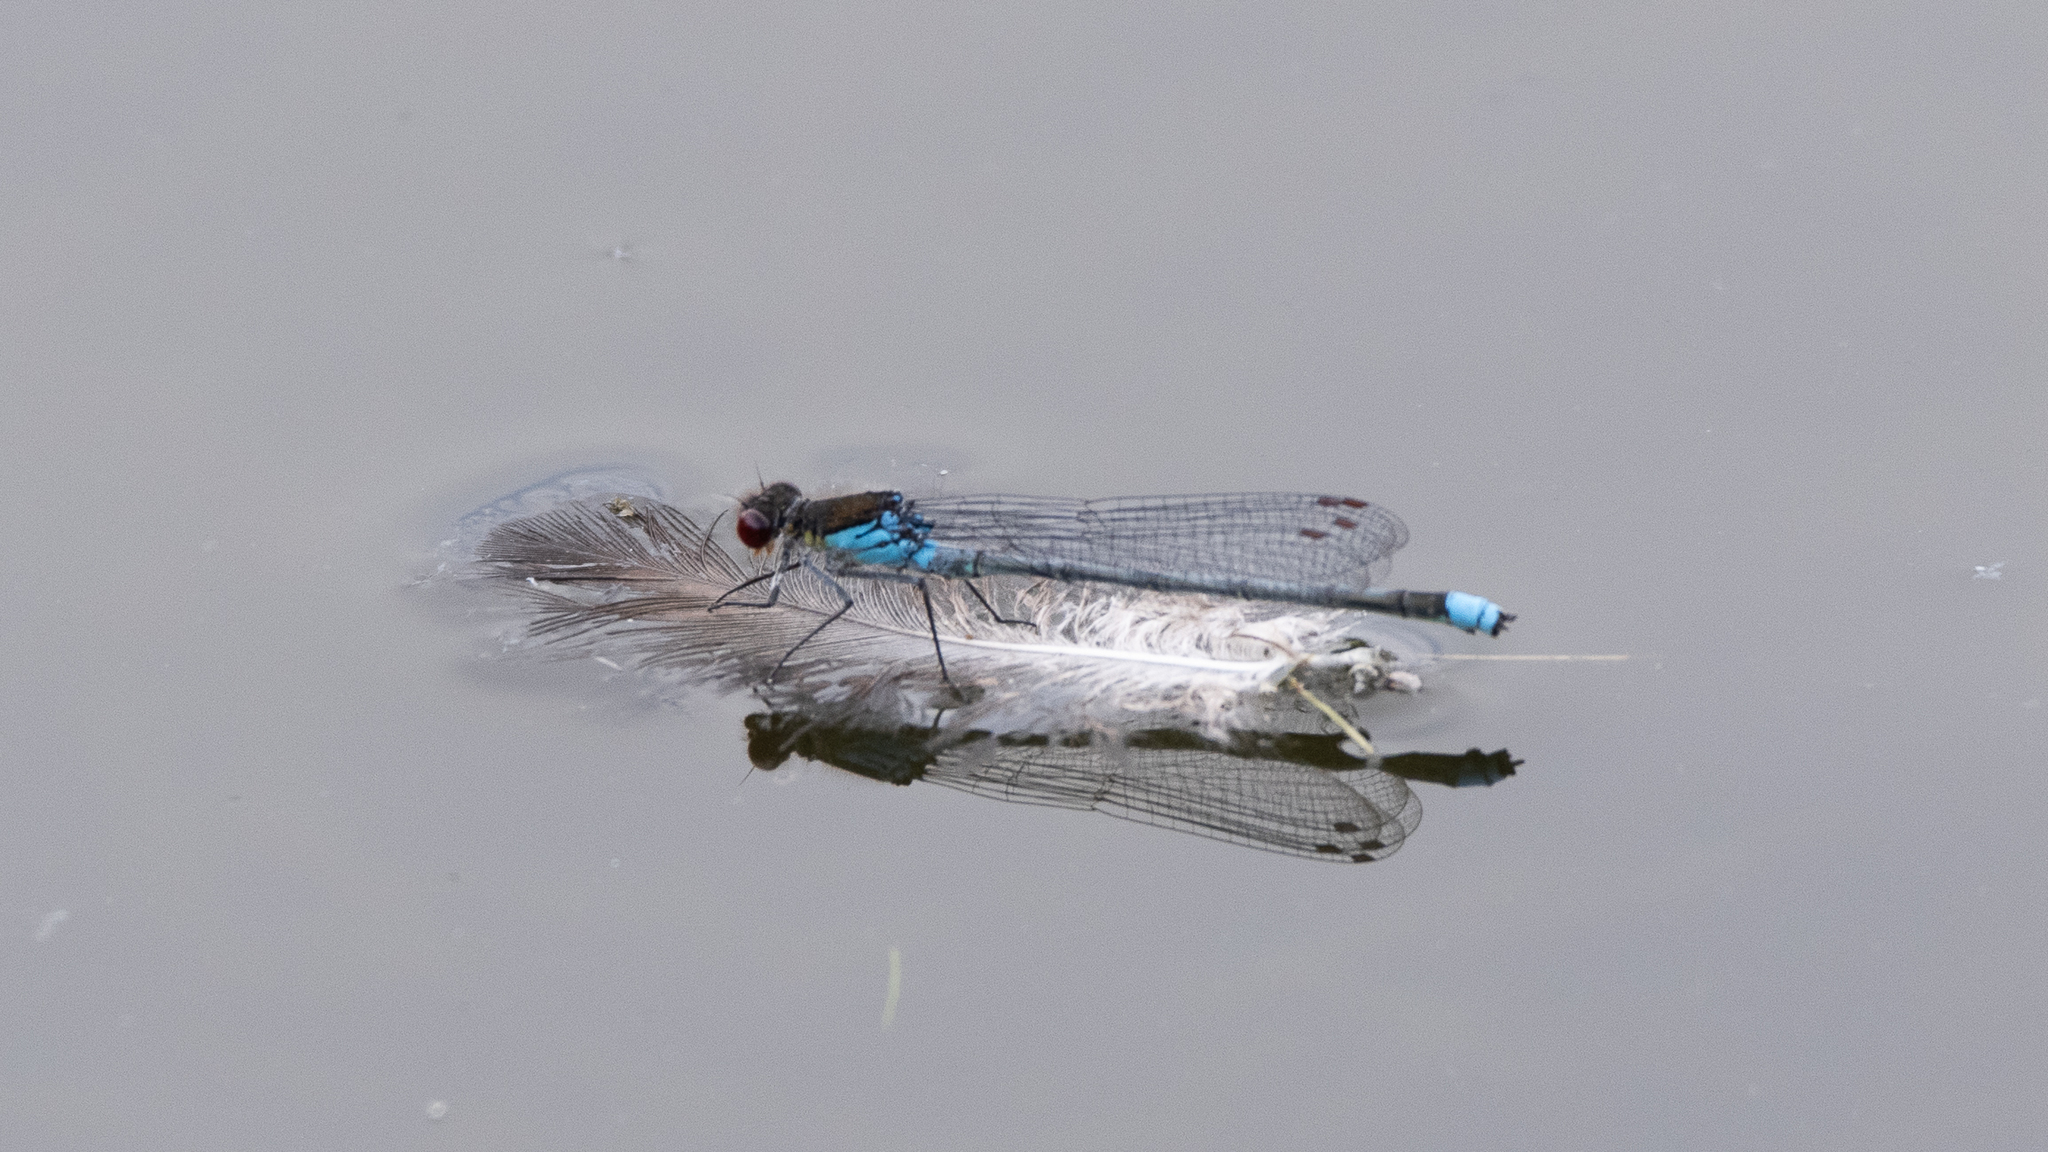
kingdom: Animalia
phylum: Arthropoda
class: Insecta
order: Odonata
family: Coenagrionidae
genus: Erythromma
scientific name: Erythromma najas
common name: Red-eyed damselfly
